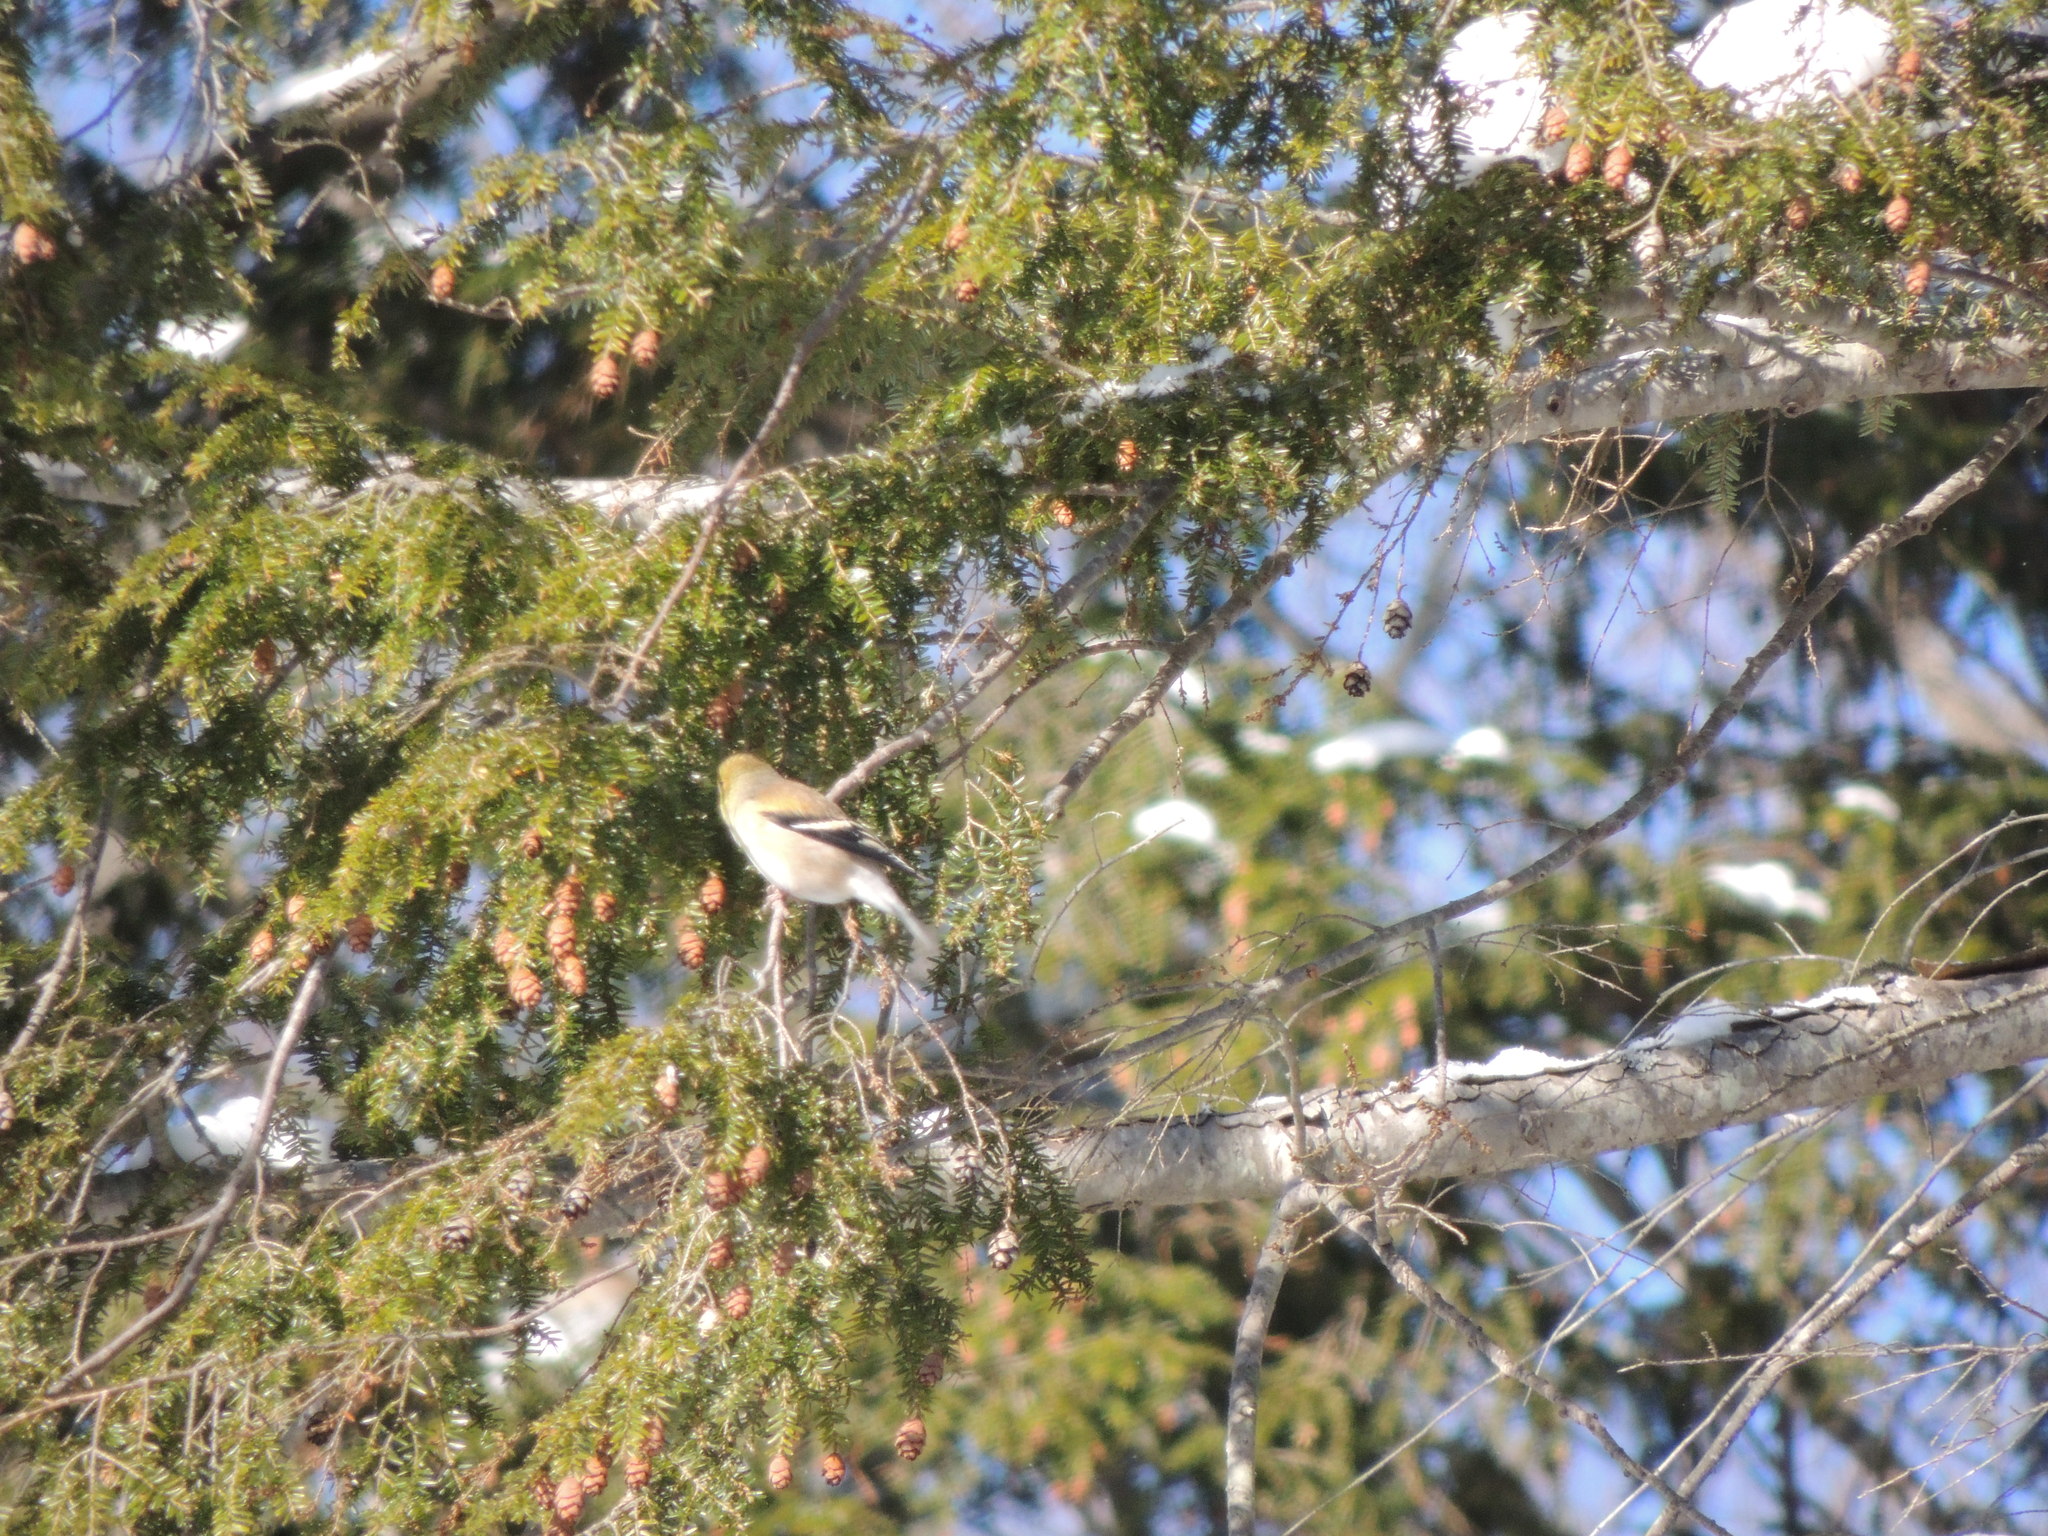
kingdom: Animalia
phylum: Chordata
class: Aves
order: Passeriformes
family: Fringillidae
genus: Spinus
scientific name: Spinus tristis
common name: American goldfinch
